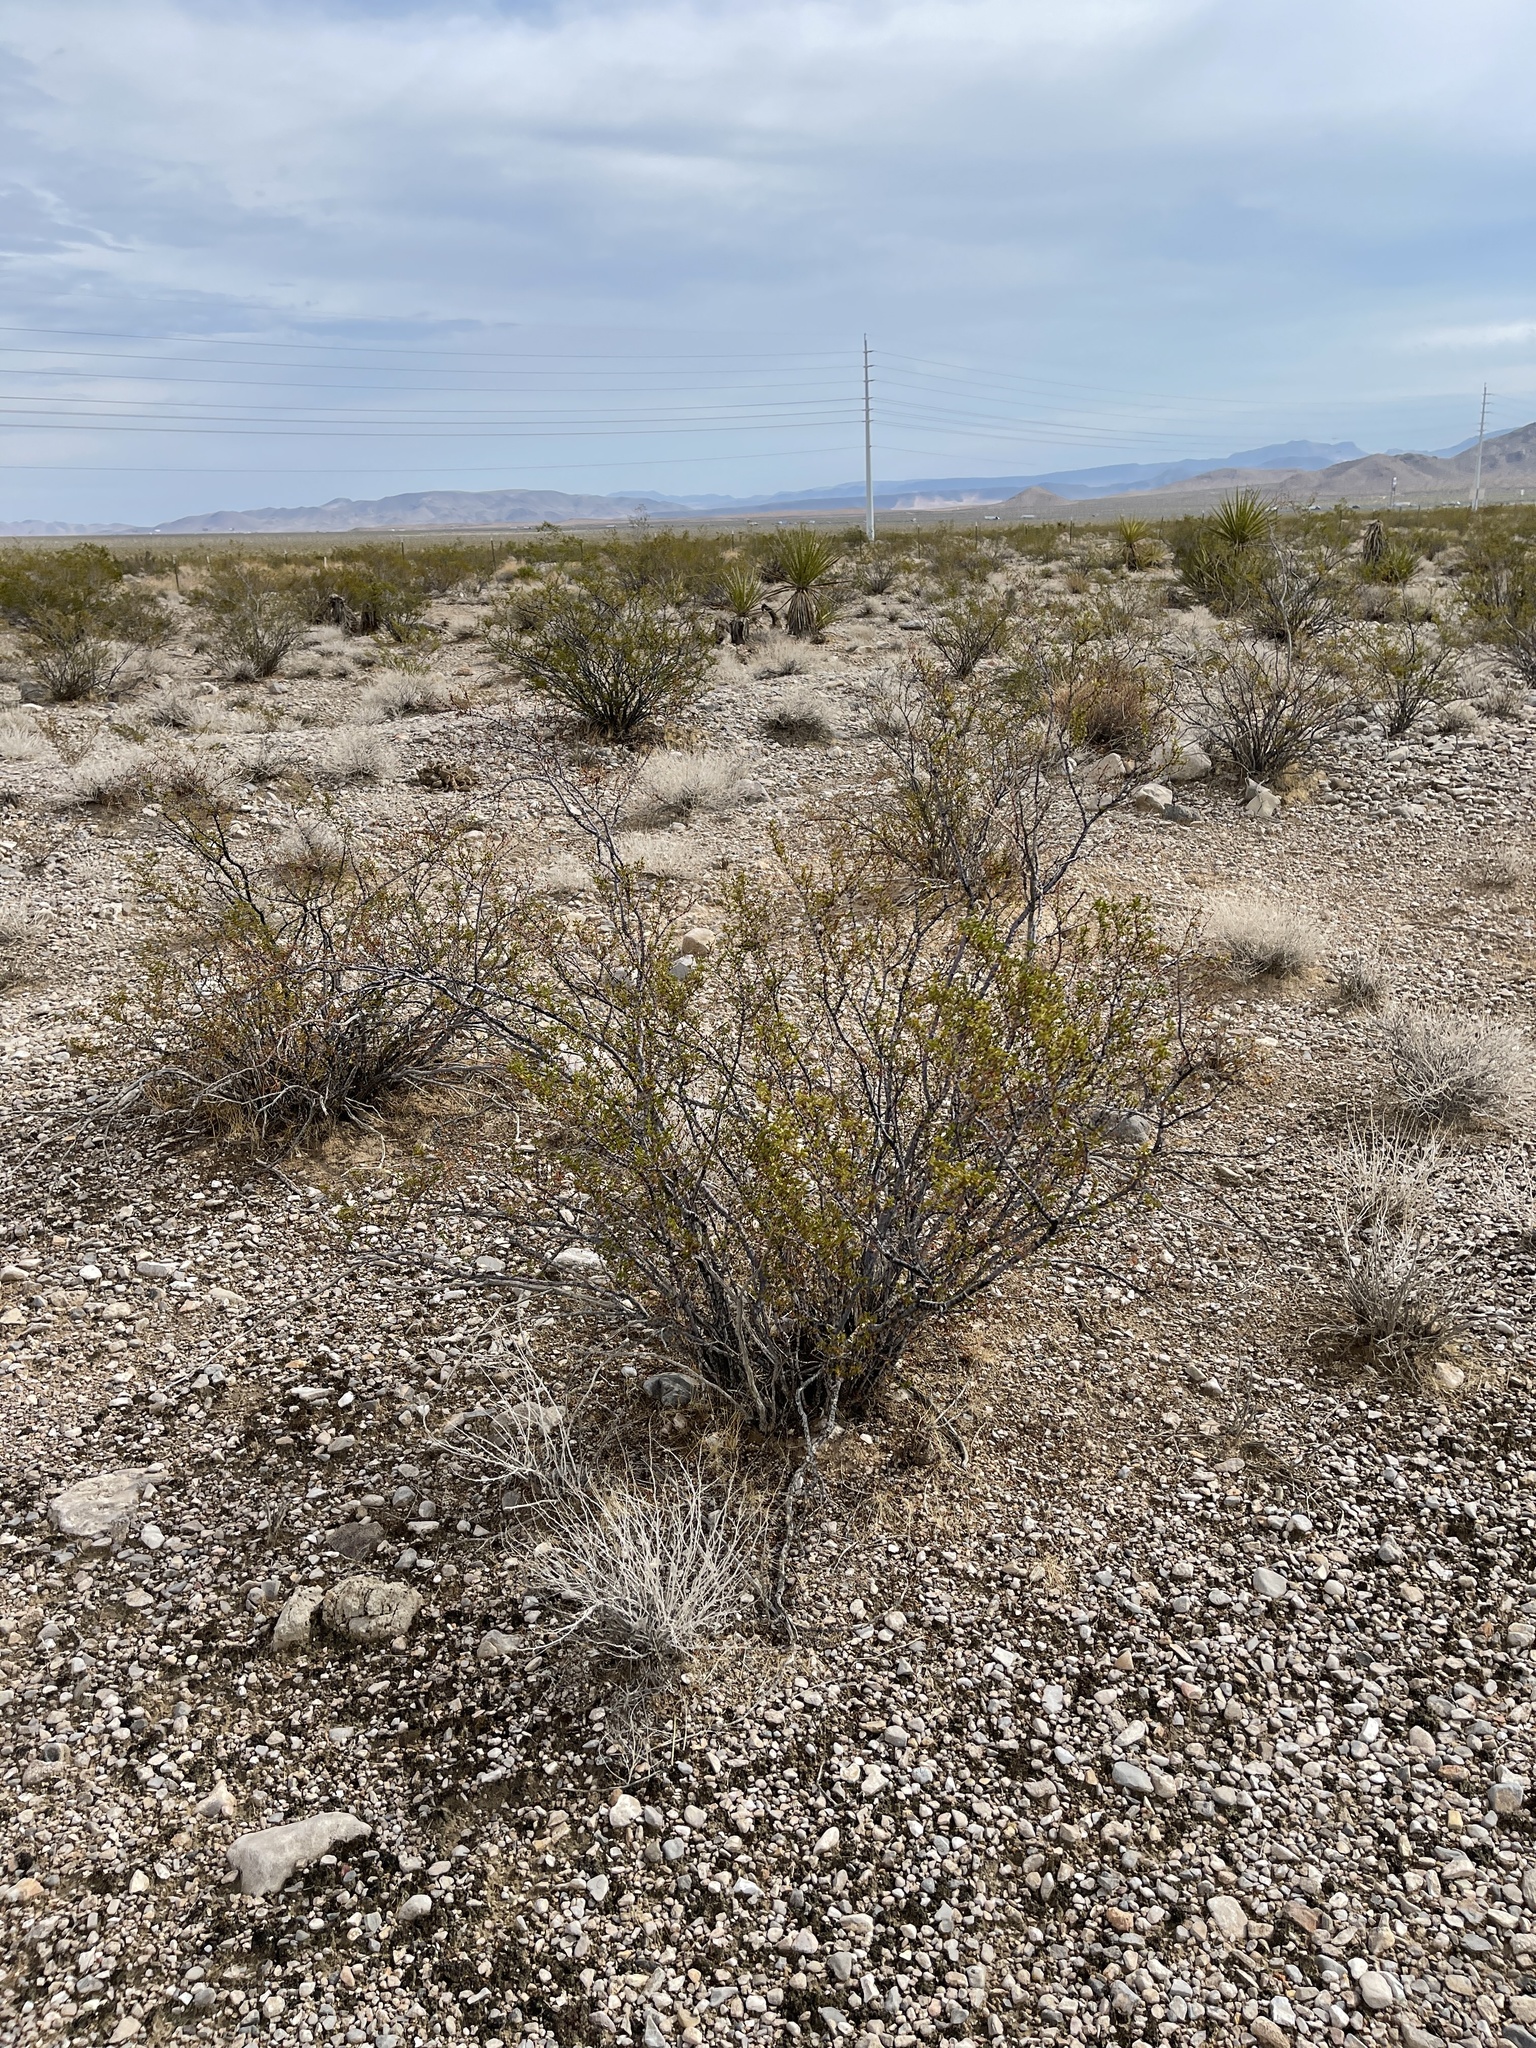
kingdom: Plantae
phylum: Tracheophyta
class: Magnoliopsida
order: Zygophyllales
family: Zygophyllaceae
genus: Larrea
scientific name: Larrea tridentata
